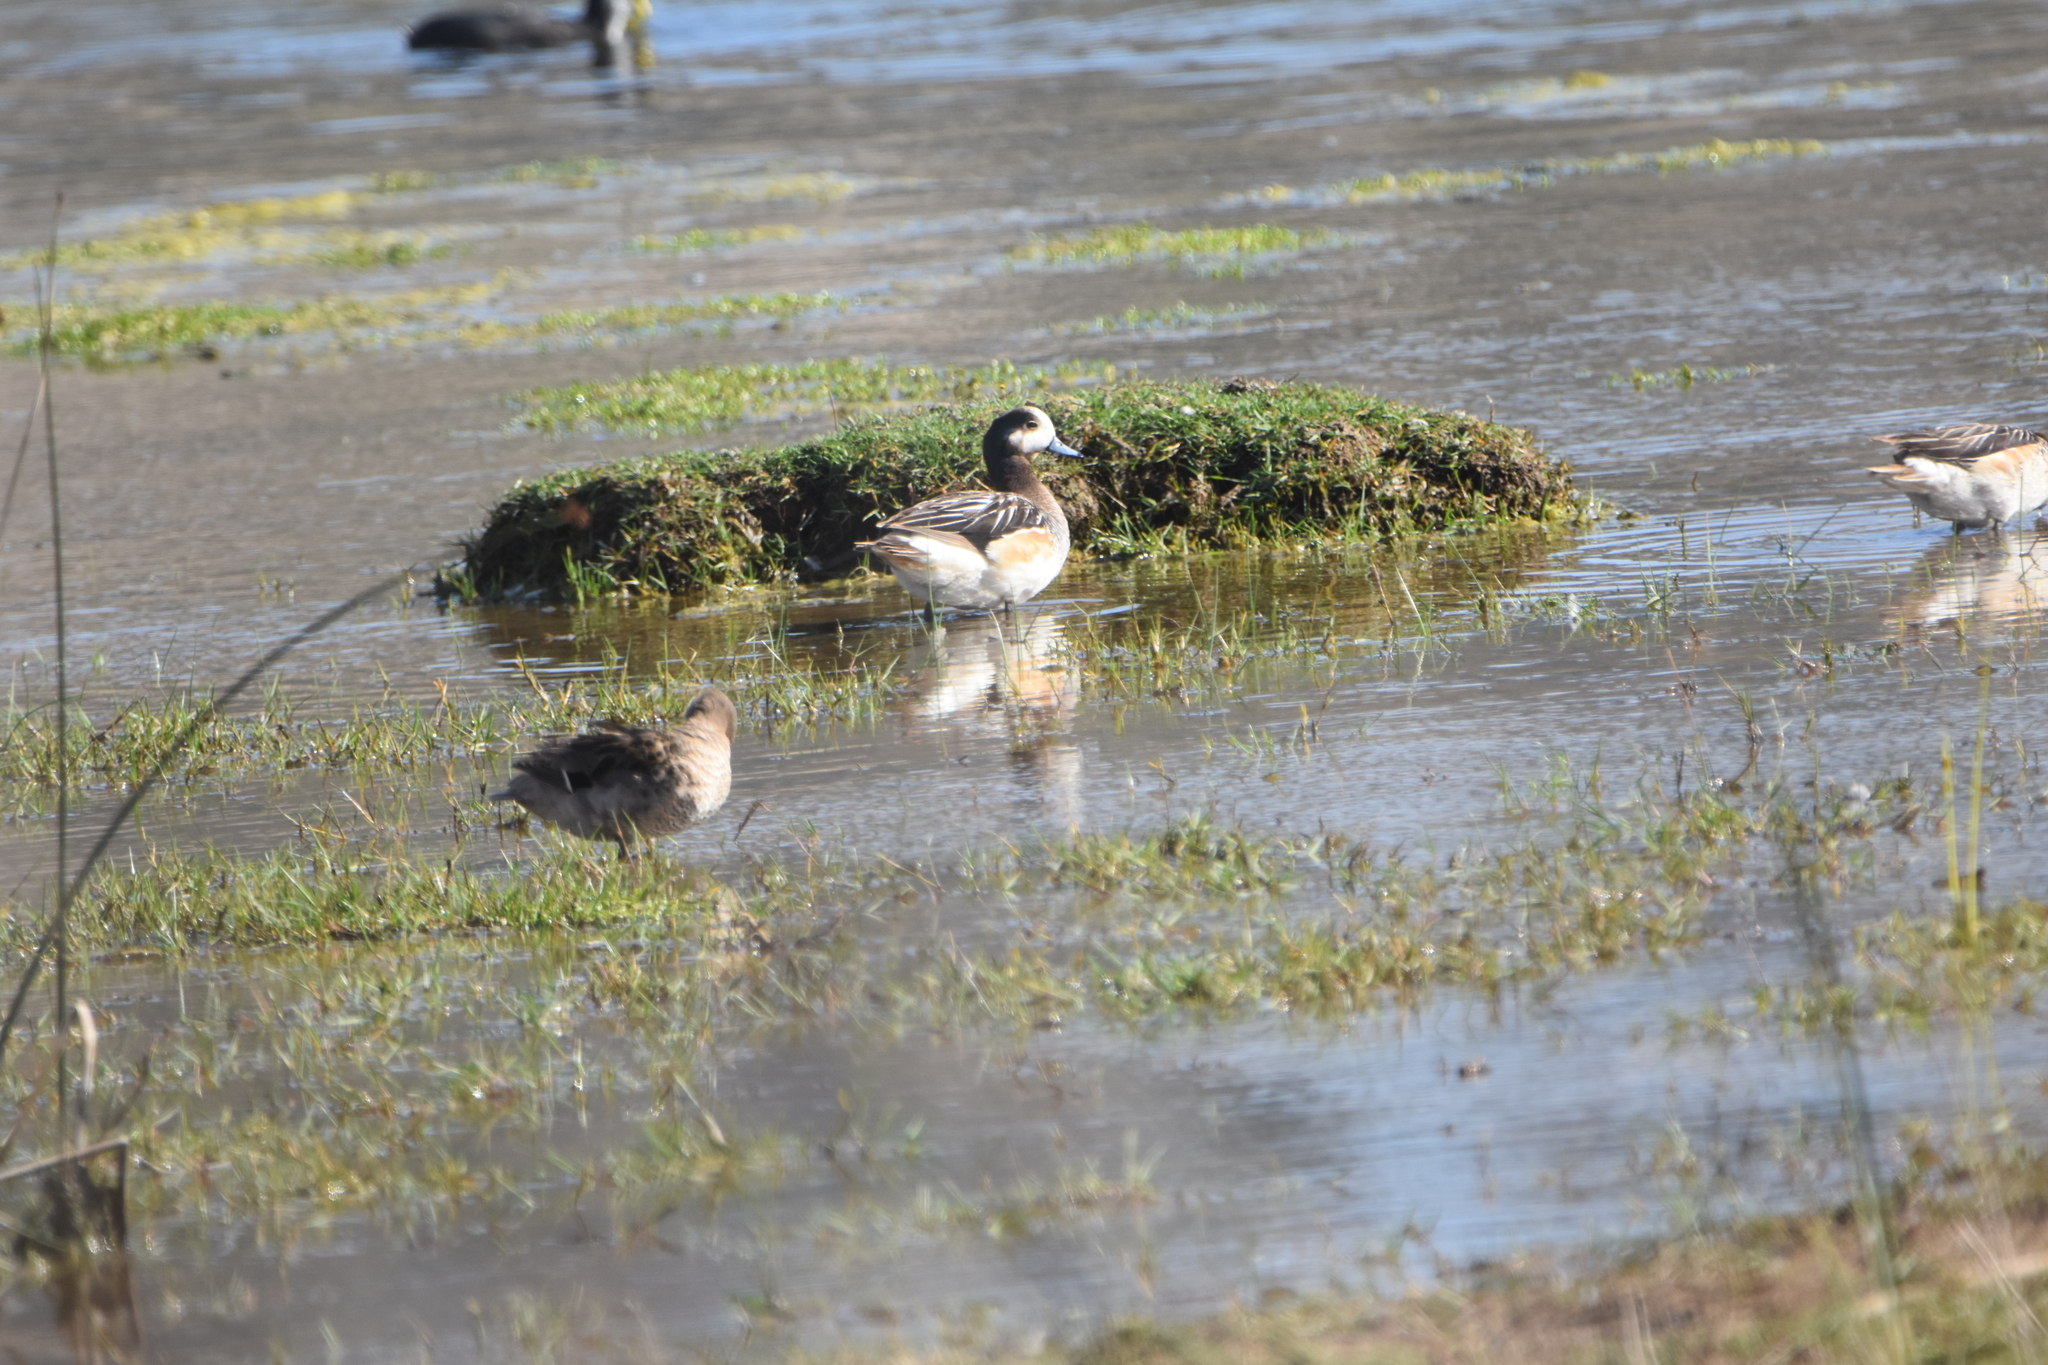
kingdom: Animalia
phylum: Chordata
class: Aves
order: Anseriformes
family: Anatidae
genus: Mareca
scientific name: Mareca sibilatrix
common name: Chiloe wigeon
